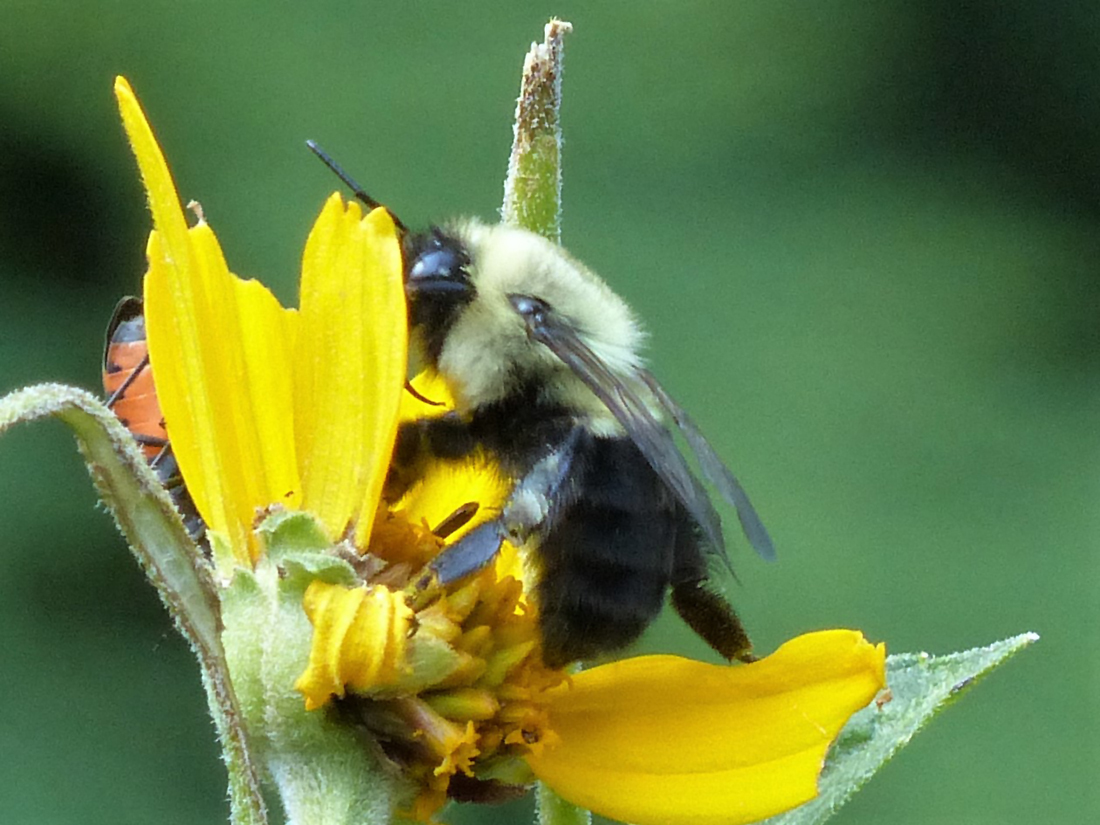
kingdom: Animalia
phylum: Arthropoda
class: Insecta
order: Hymenoptera
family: Apidae
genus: Bombus
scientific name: Bombus impatiens
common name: Common eastern bumble bee
